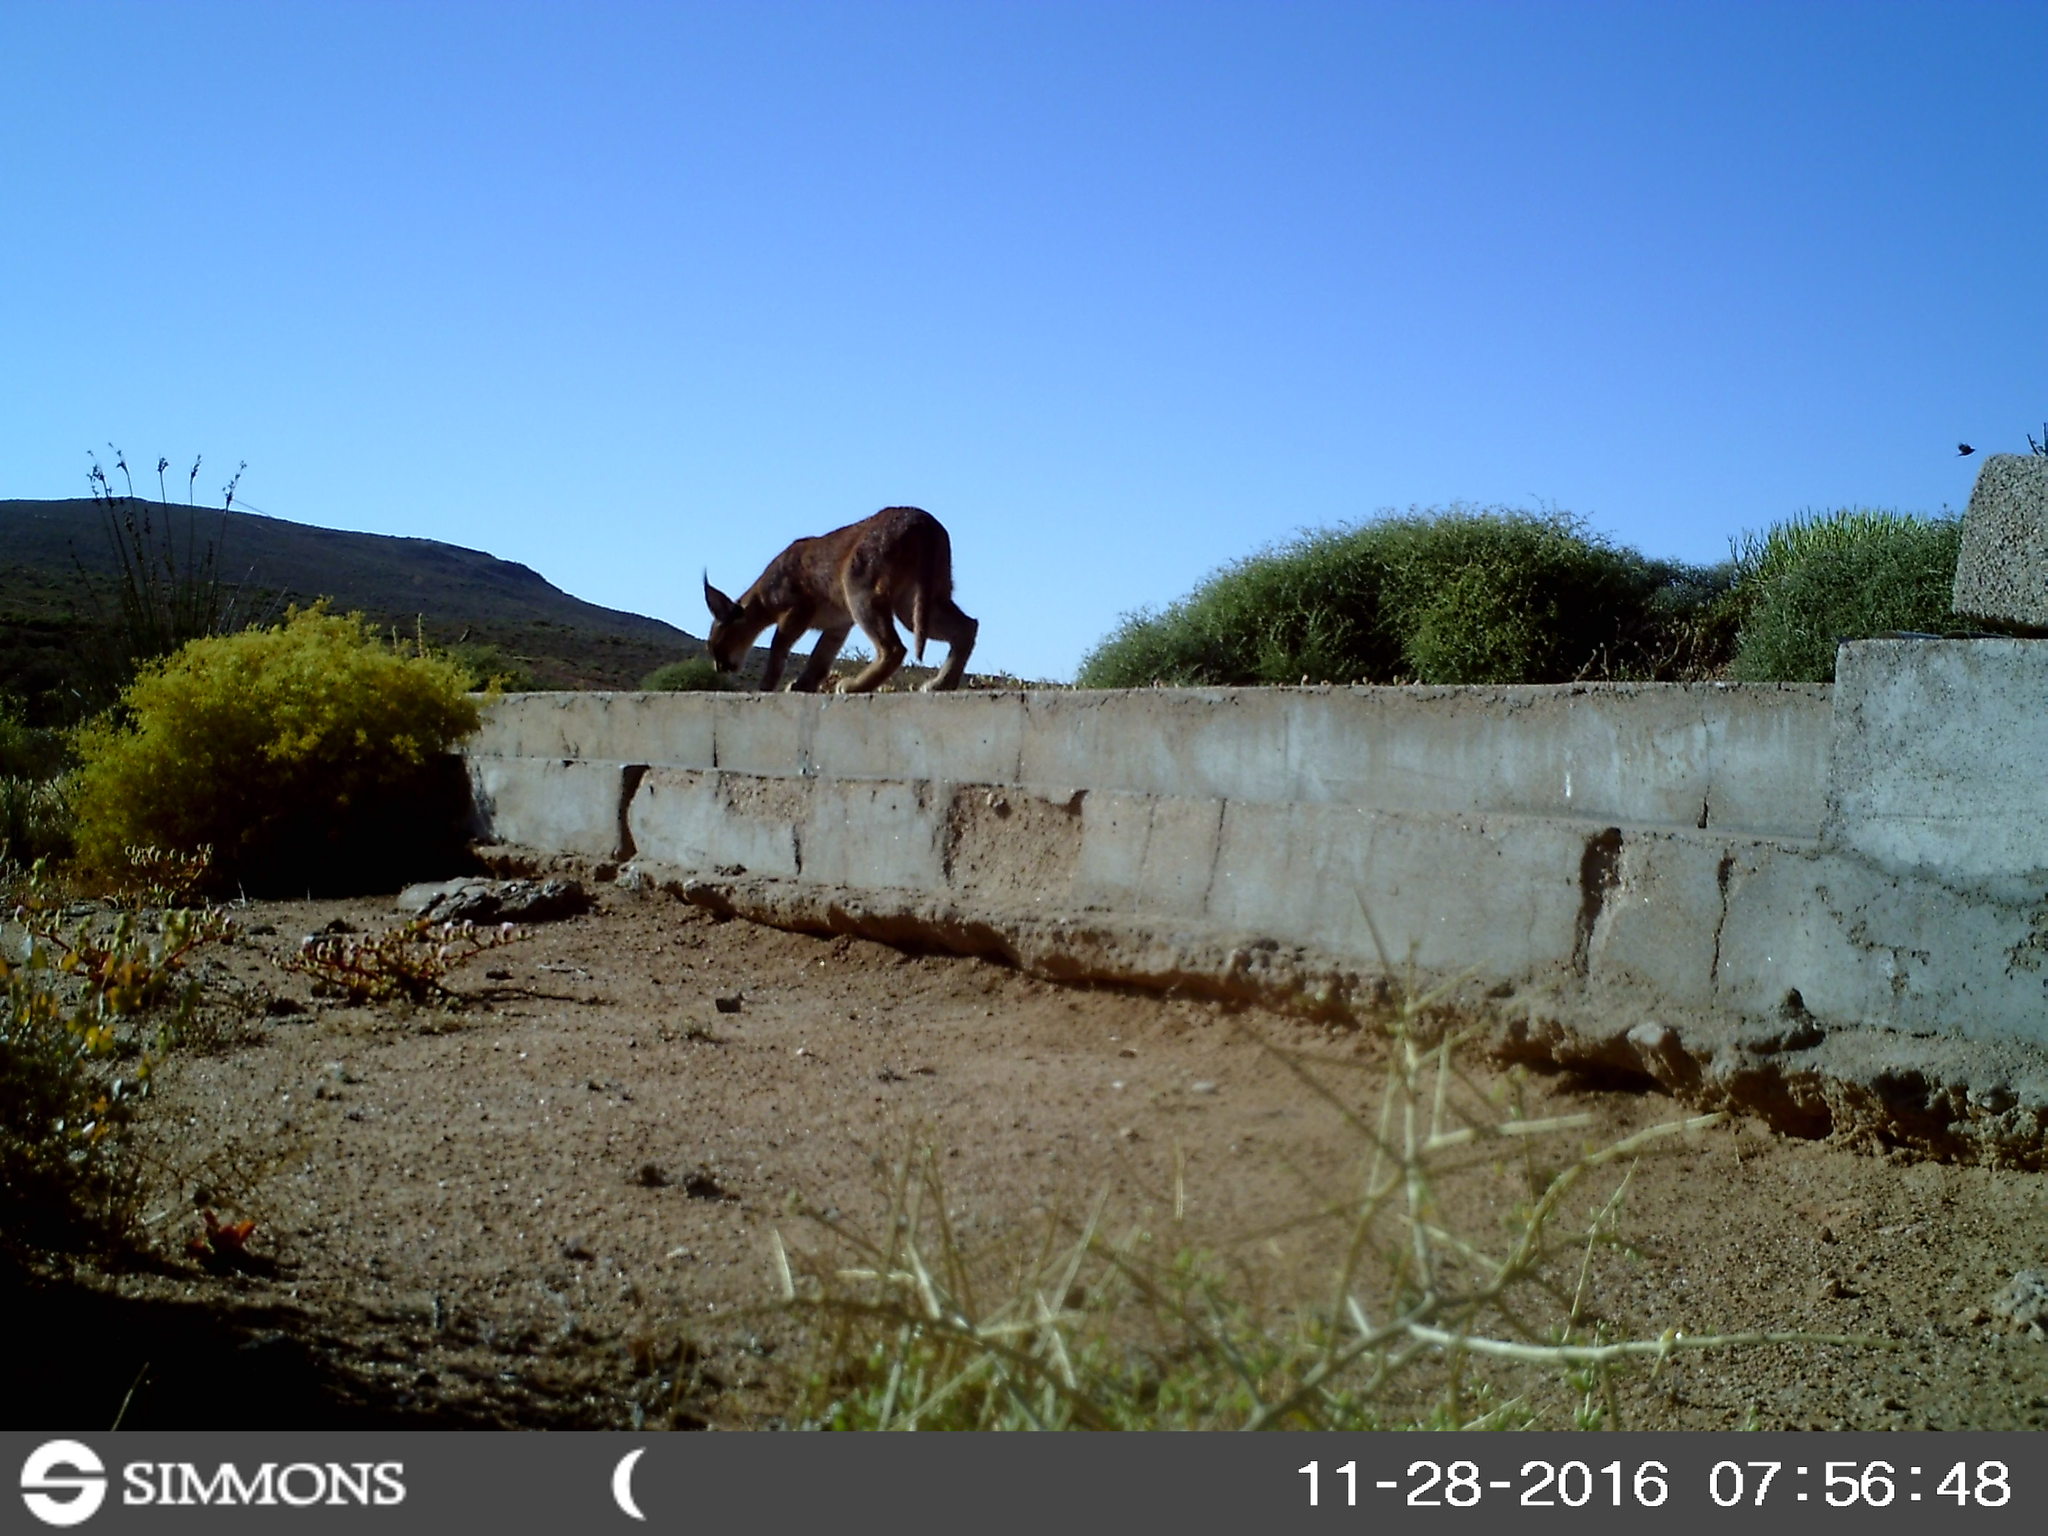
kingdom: Animalia
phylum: Chordata
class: Mammalia
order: Carnivora
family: Felidae
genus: Caracal
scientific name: Caracal caracal
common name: Caracal
